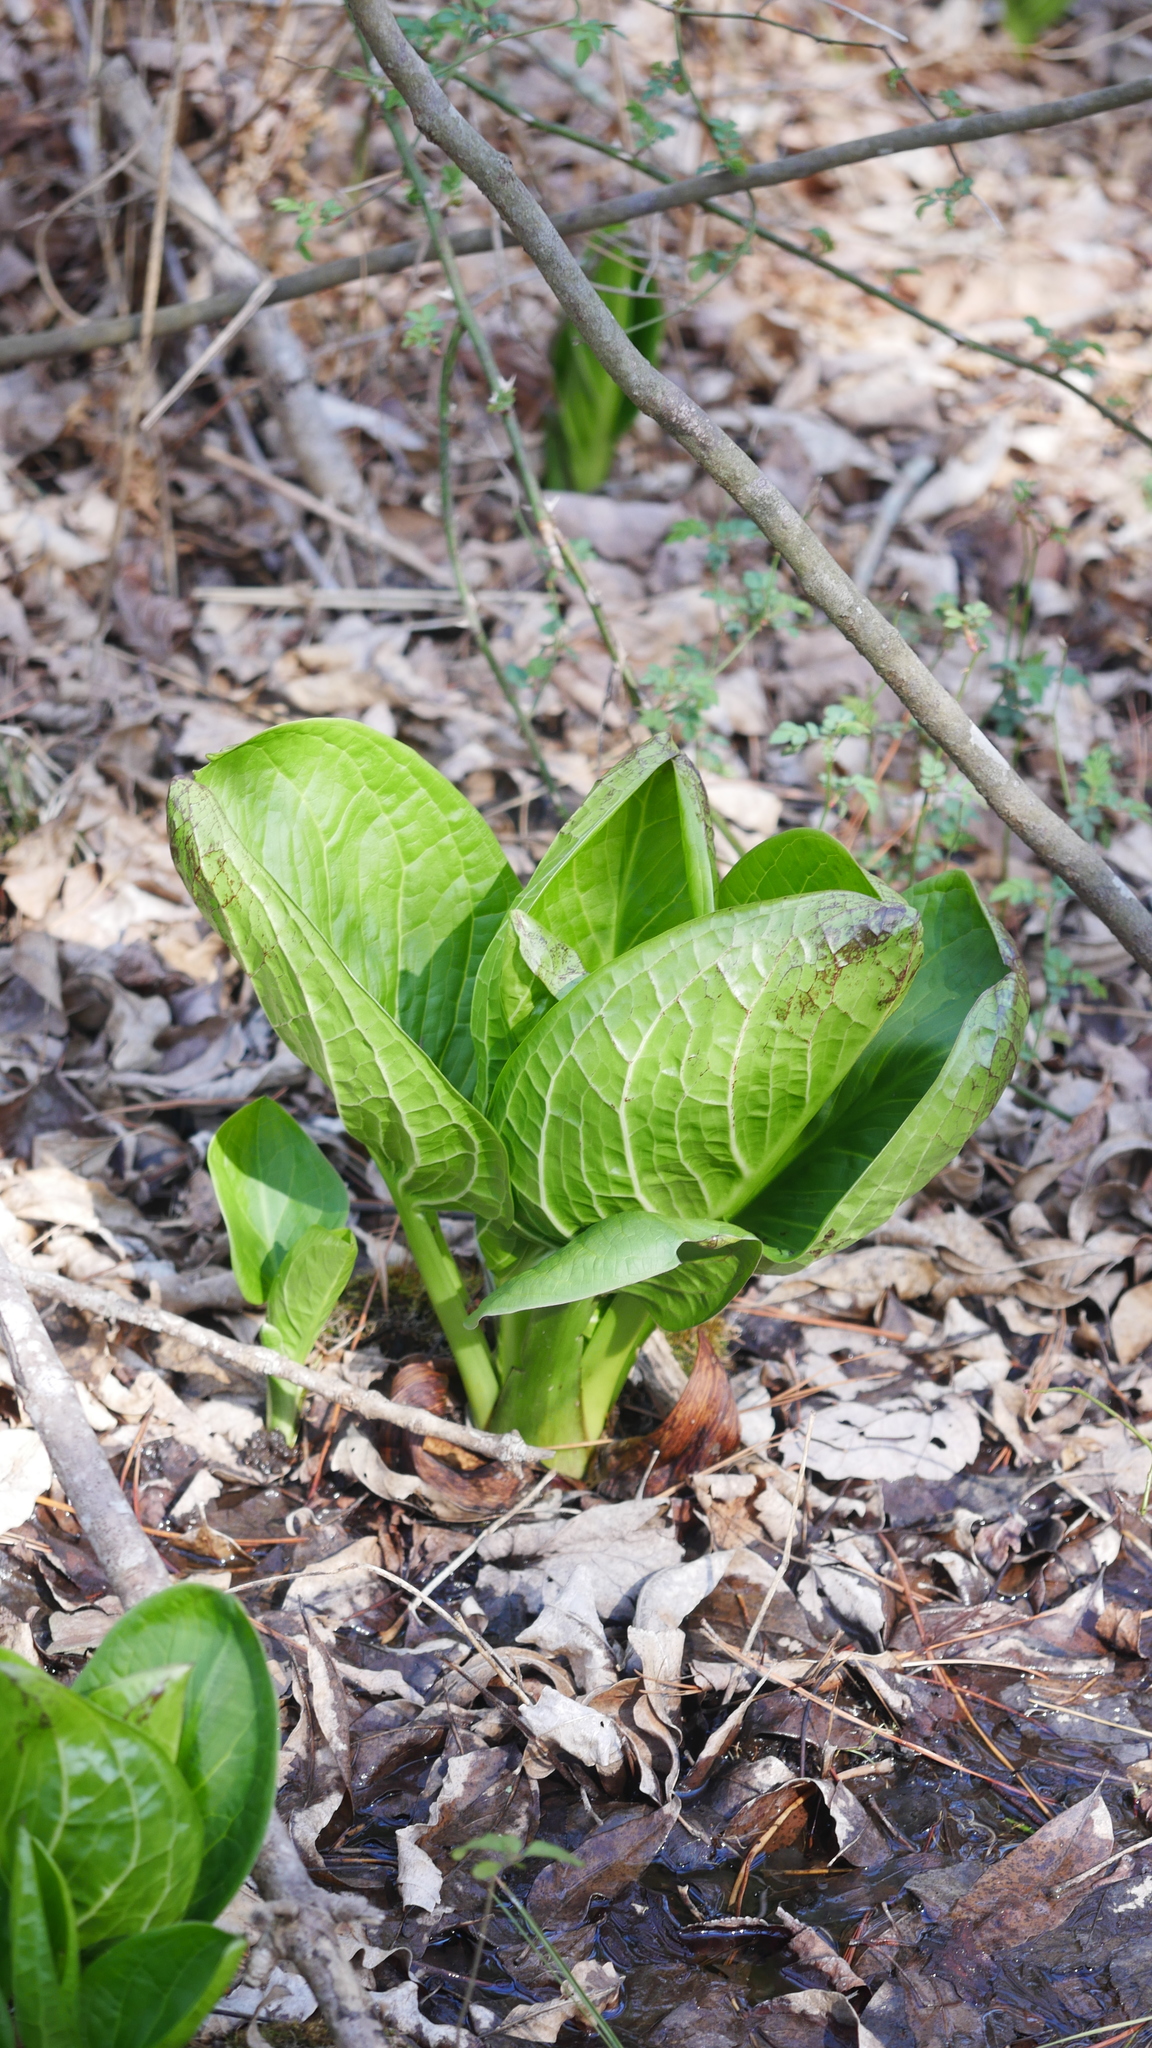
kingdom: Plantae
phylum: Tracheophyta
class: Liliopsida
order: Alismatales
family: Araceae
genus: Symplocarpus
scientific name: Symplocarpus foetidus
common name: Eastern skunk cabbage
